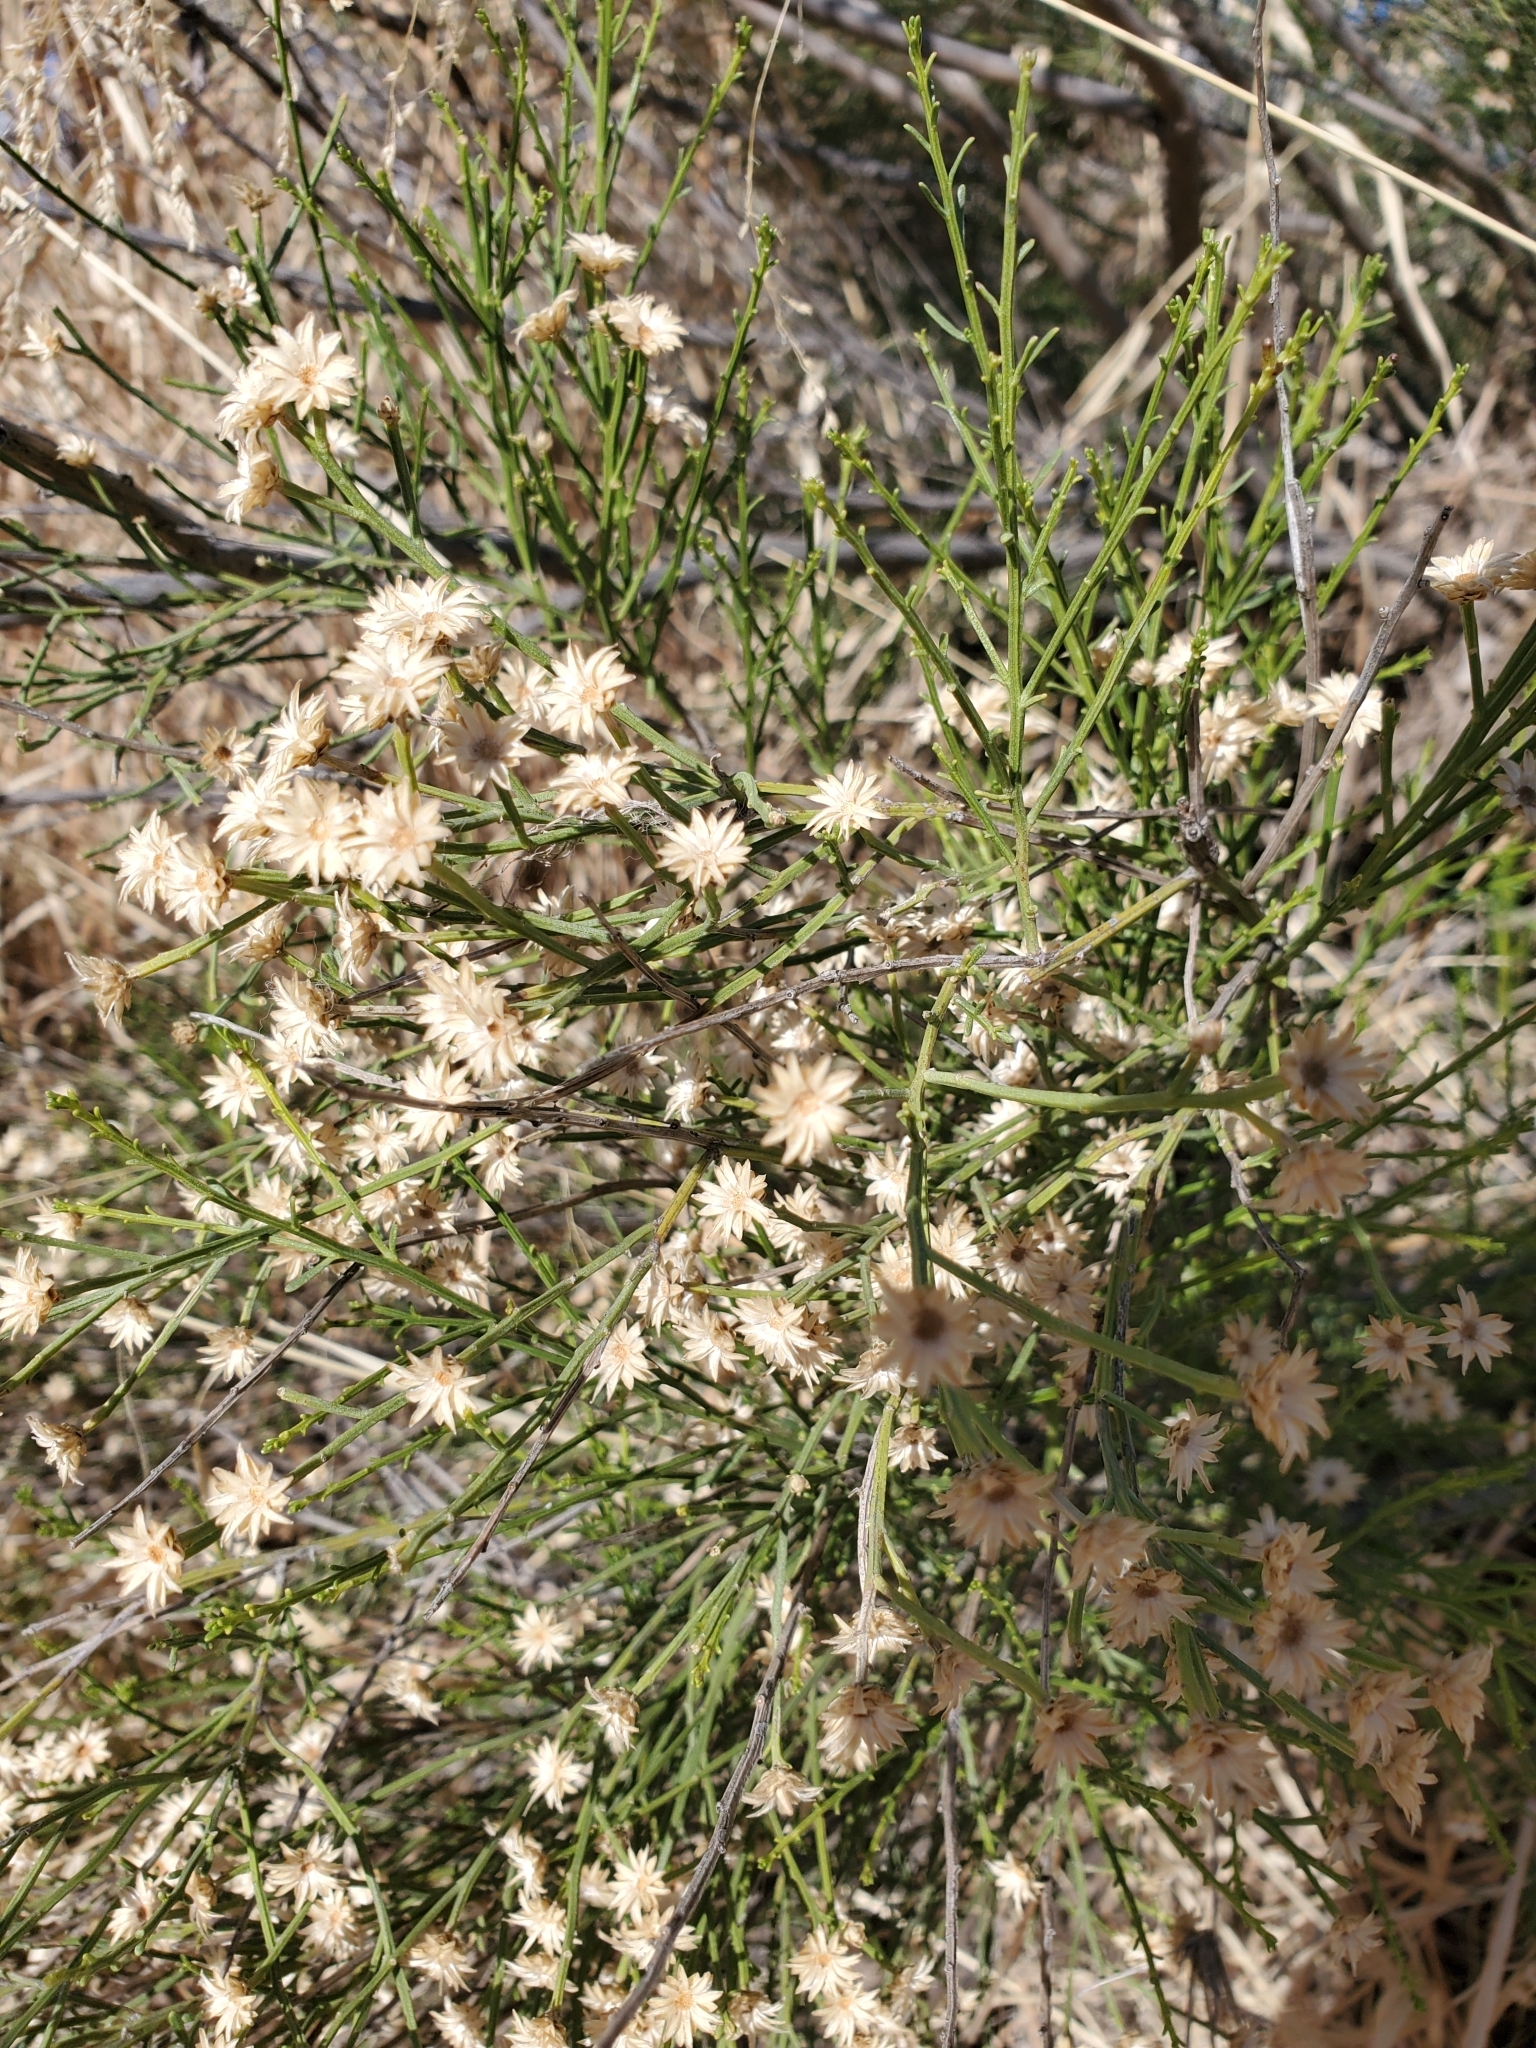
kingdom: Plantae
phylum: Tracheophyta
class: Magnoliopsida
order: Asterales
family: Asteraceae
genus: Baccharis
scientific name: Baccharis sarothroides
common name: Desert-broom
